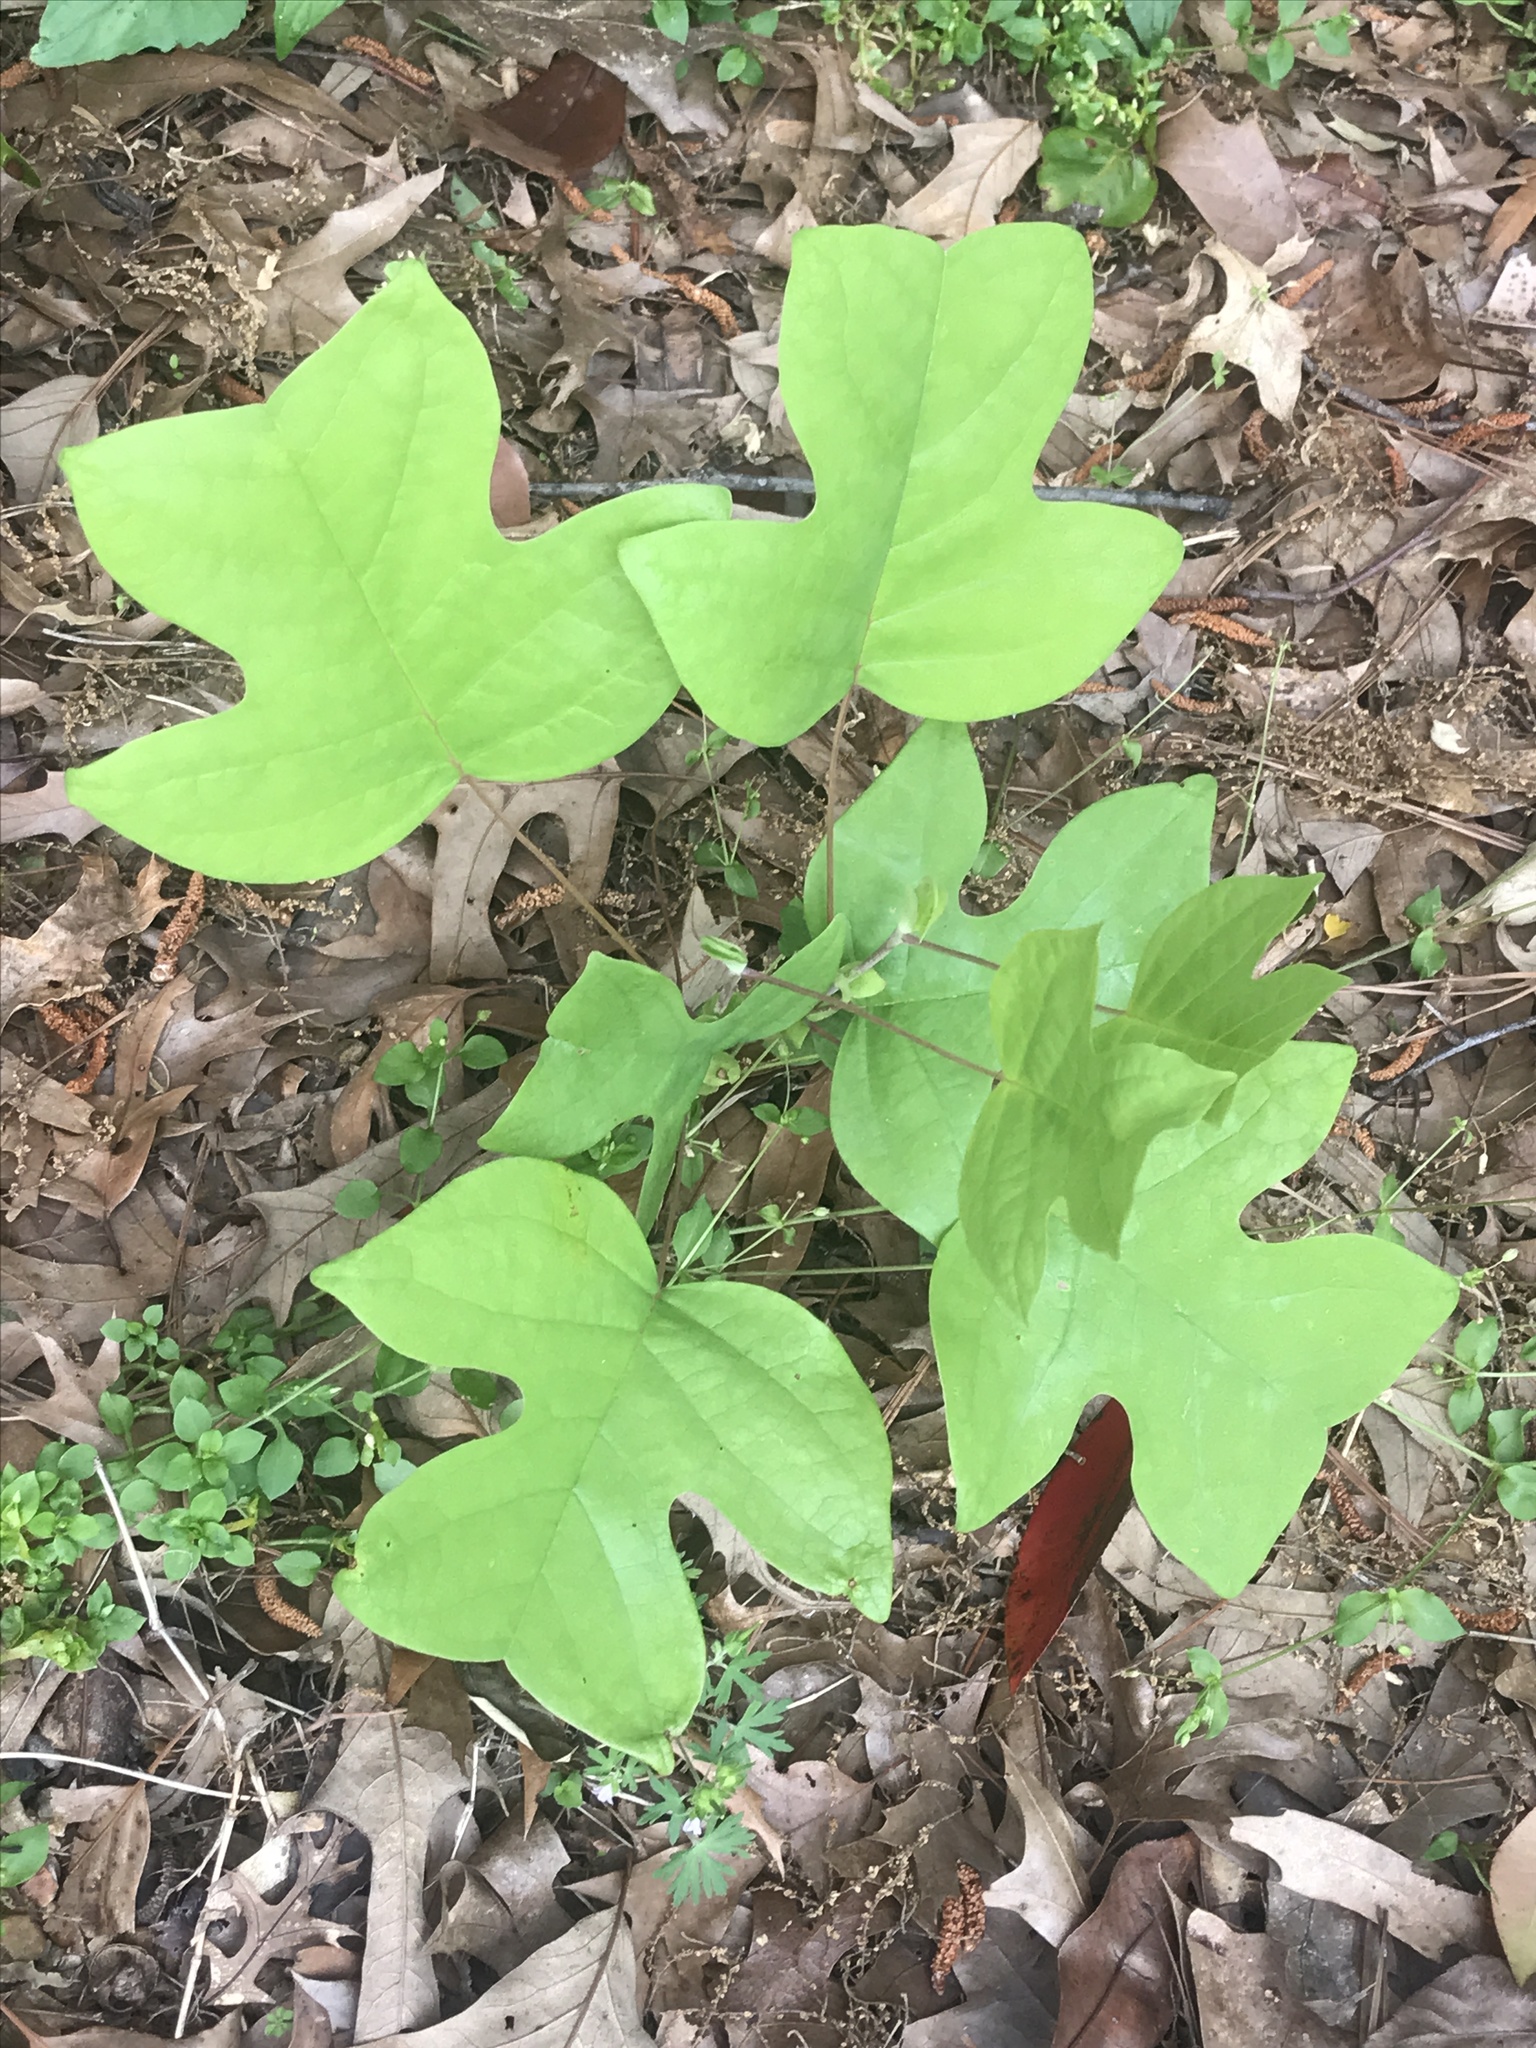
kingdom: Plantae
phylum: Tracheophyta
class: Magnoliopsida
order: Magnoliales
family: Magnoliaceae
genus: Liriodendron
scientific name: Liriodendron tulipifera
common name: Tulip tree
